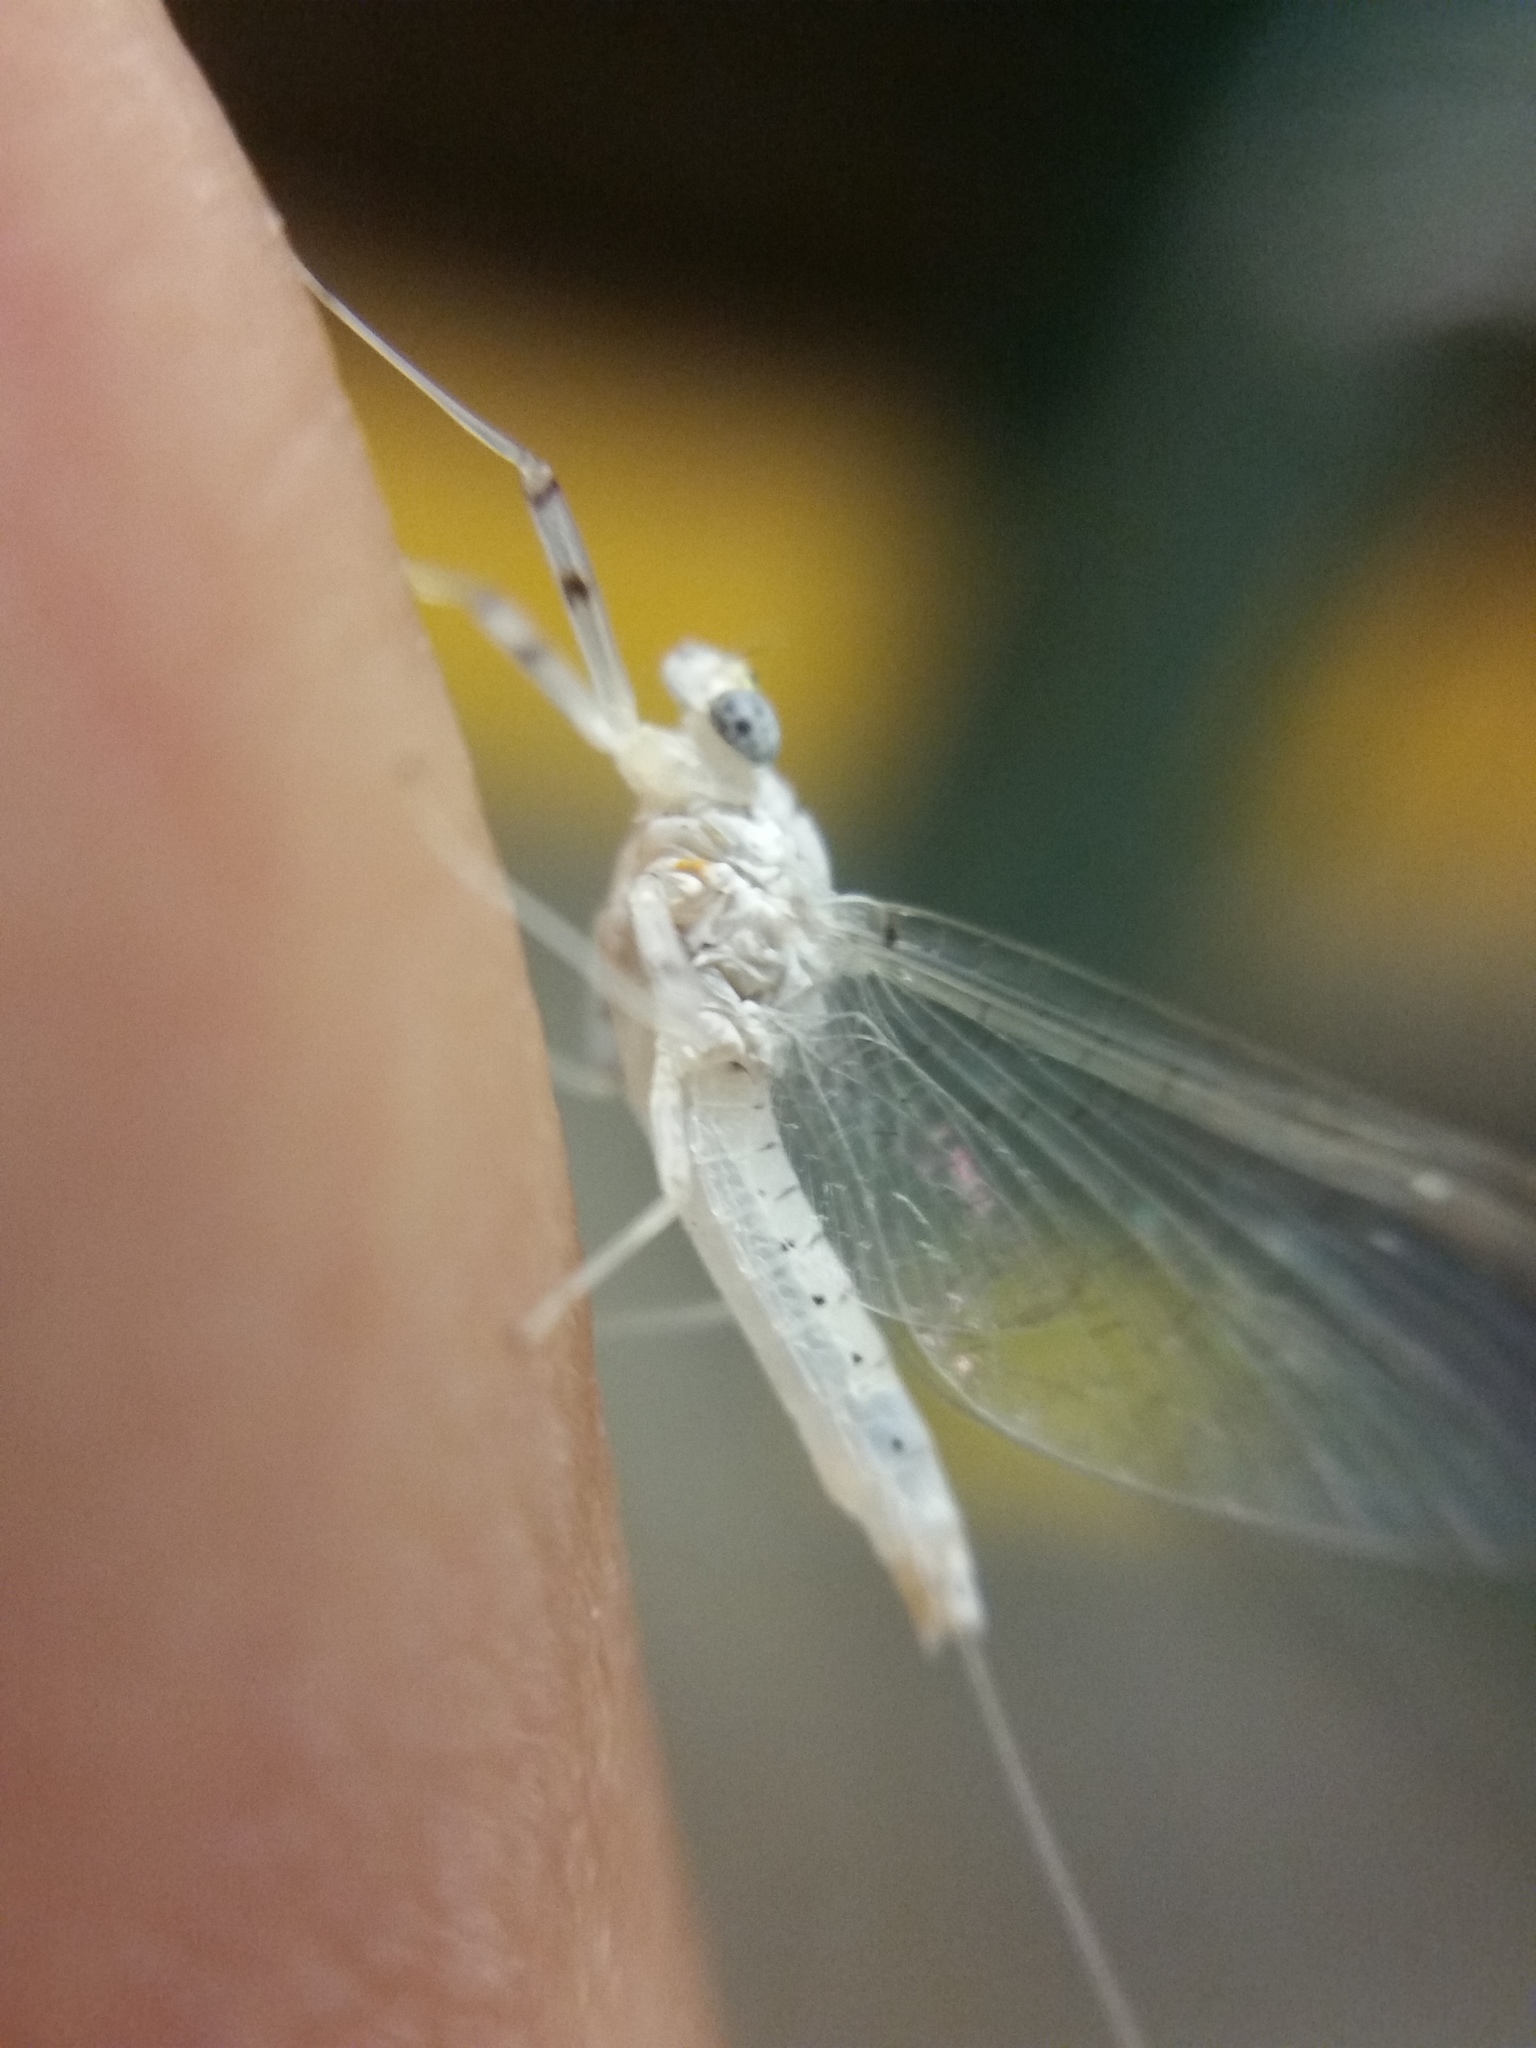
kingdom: Animalia
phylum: Arthropoda
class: Insecta
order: Ephemeroptera
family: Heptageniidae
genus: Maccaffertium
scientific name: Maccaffertium mexicanum
